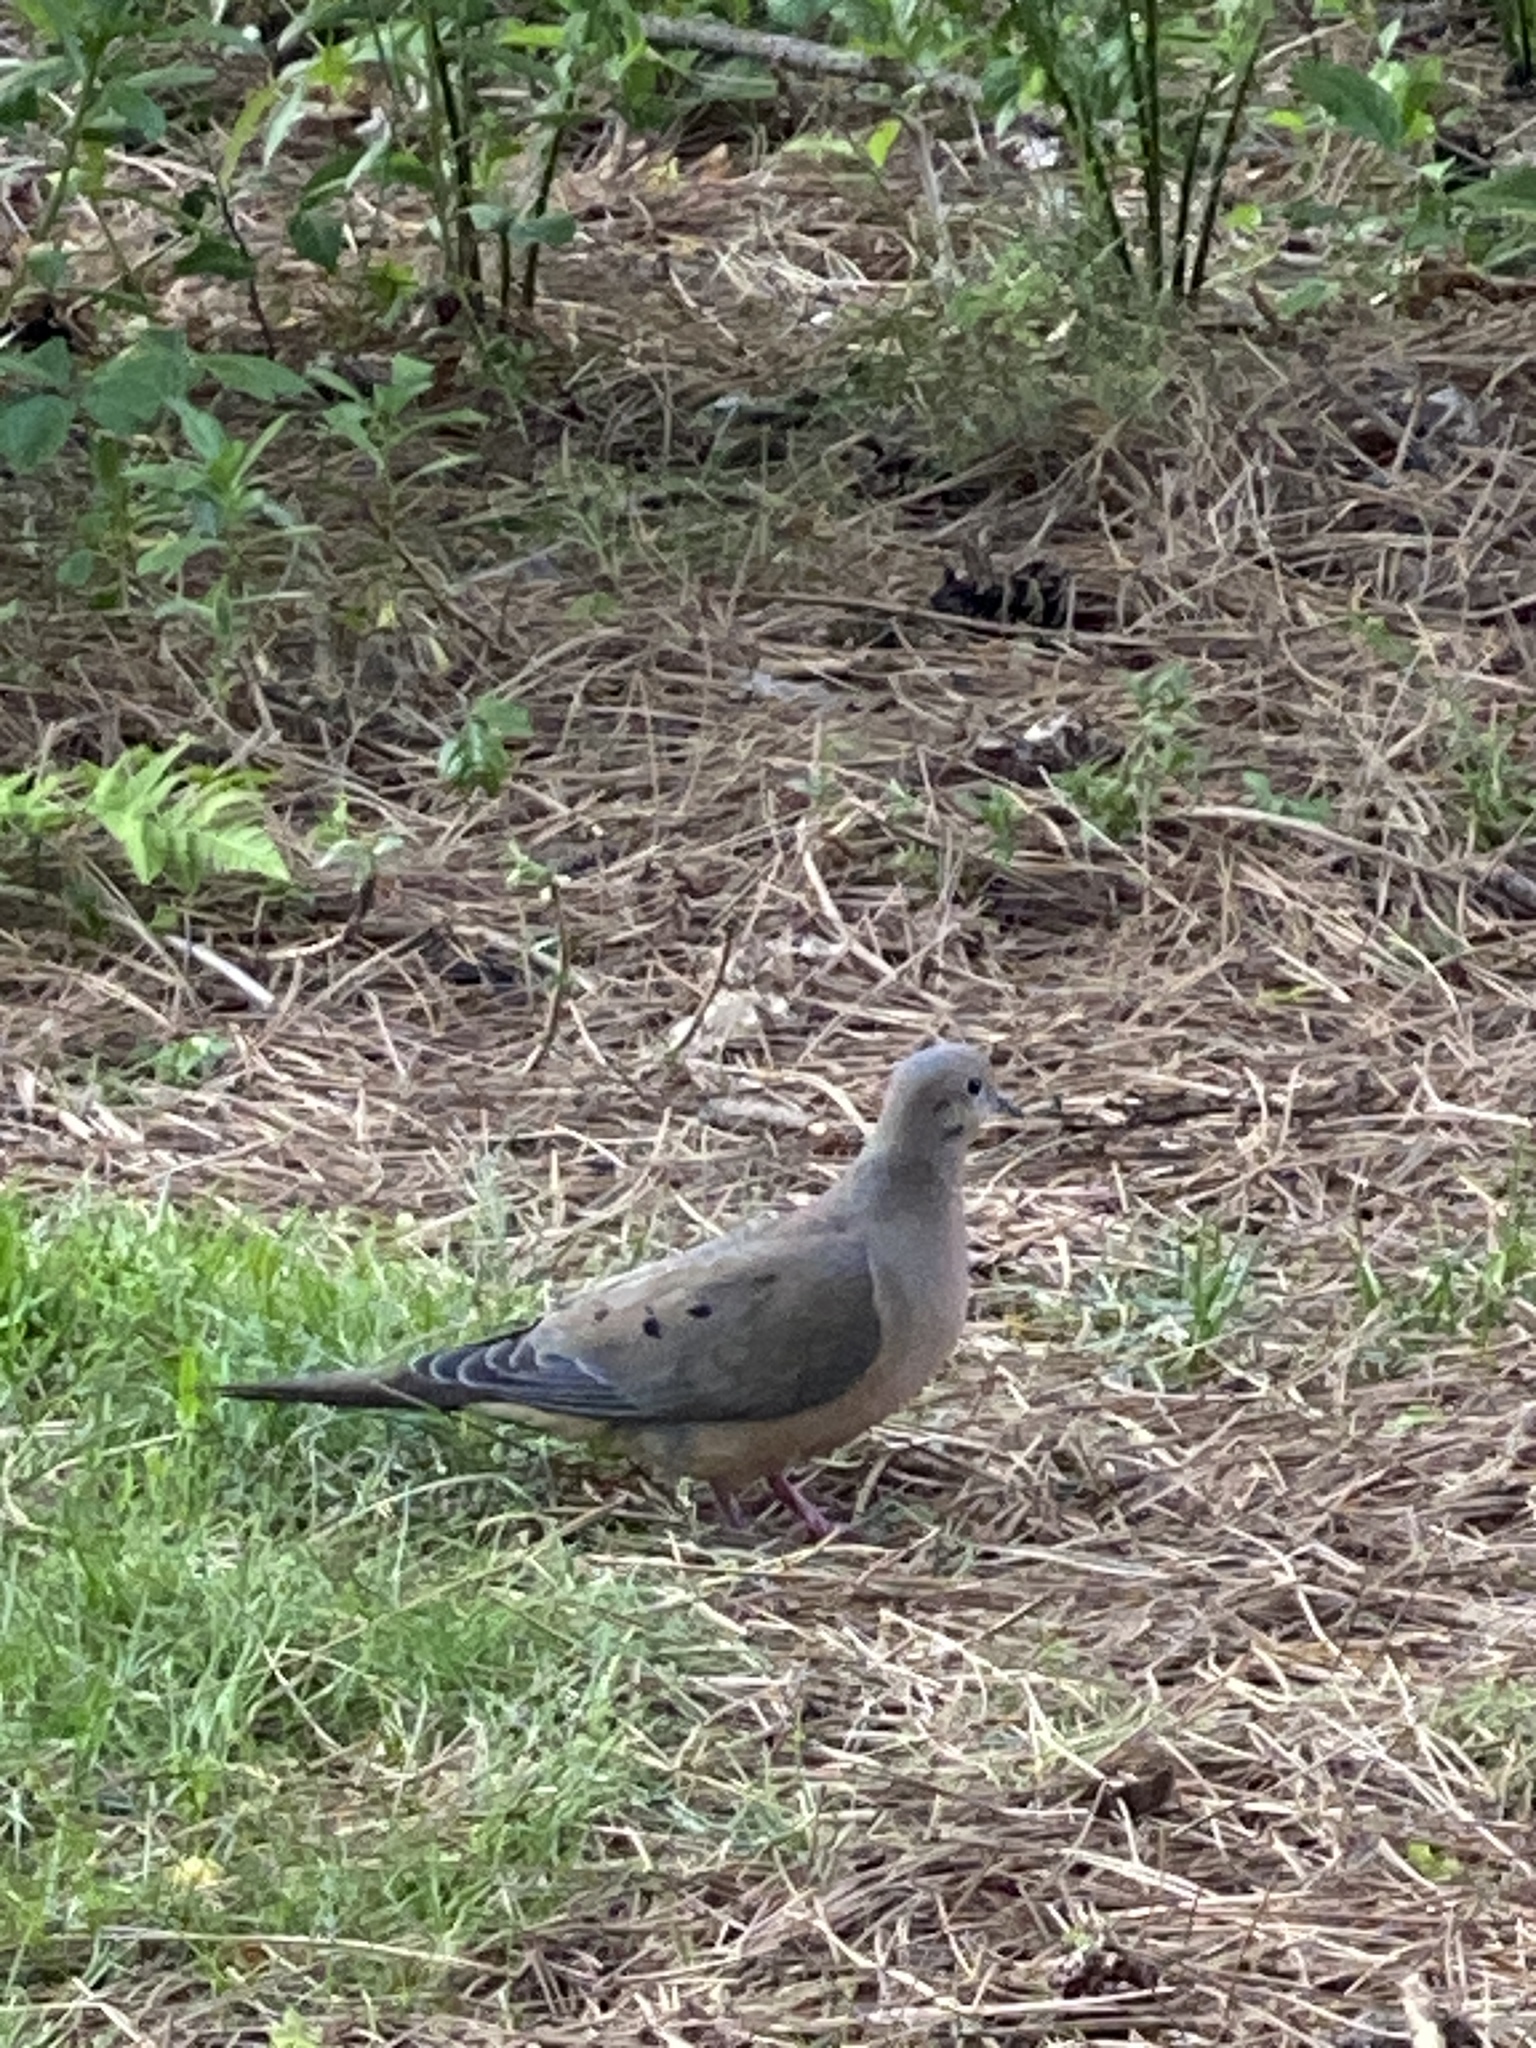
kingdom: Animalia
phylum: Chordata
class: Aves
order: Columbiformes
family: Columbidae
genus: Zenaida
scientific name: Zenaida macroura
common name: Mourning dove
